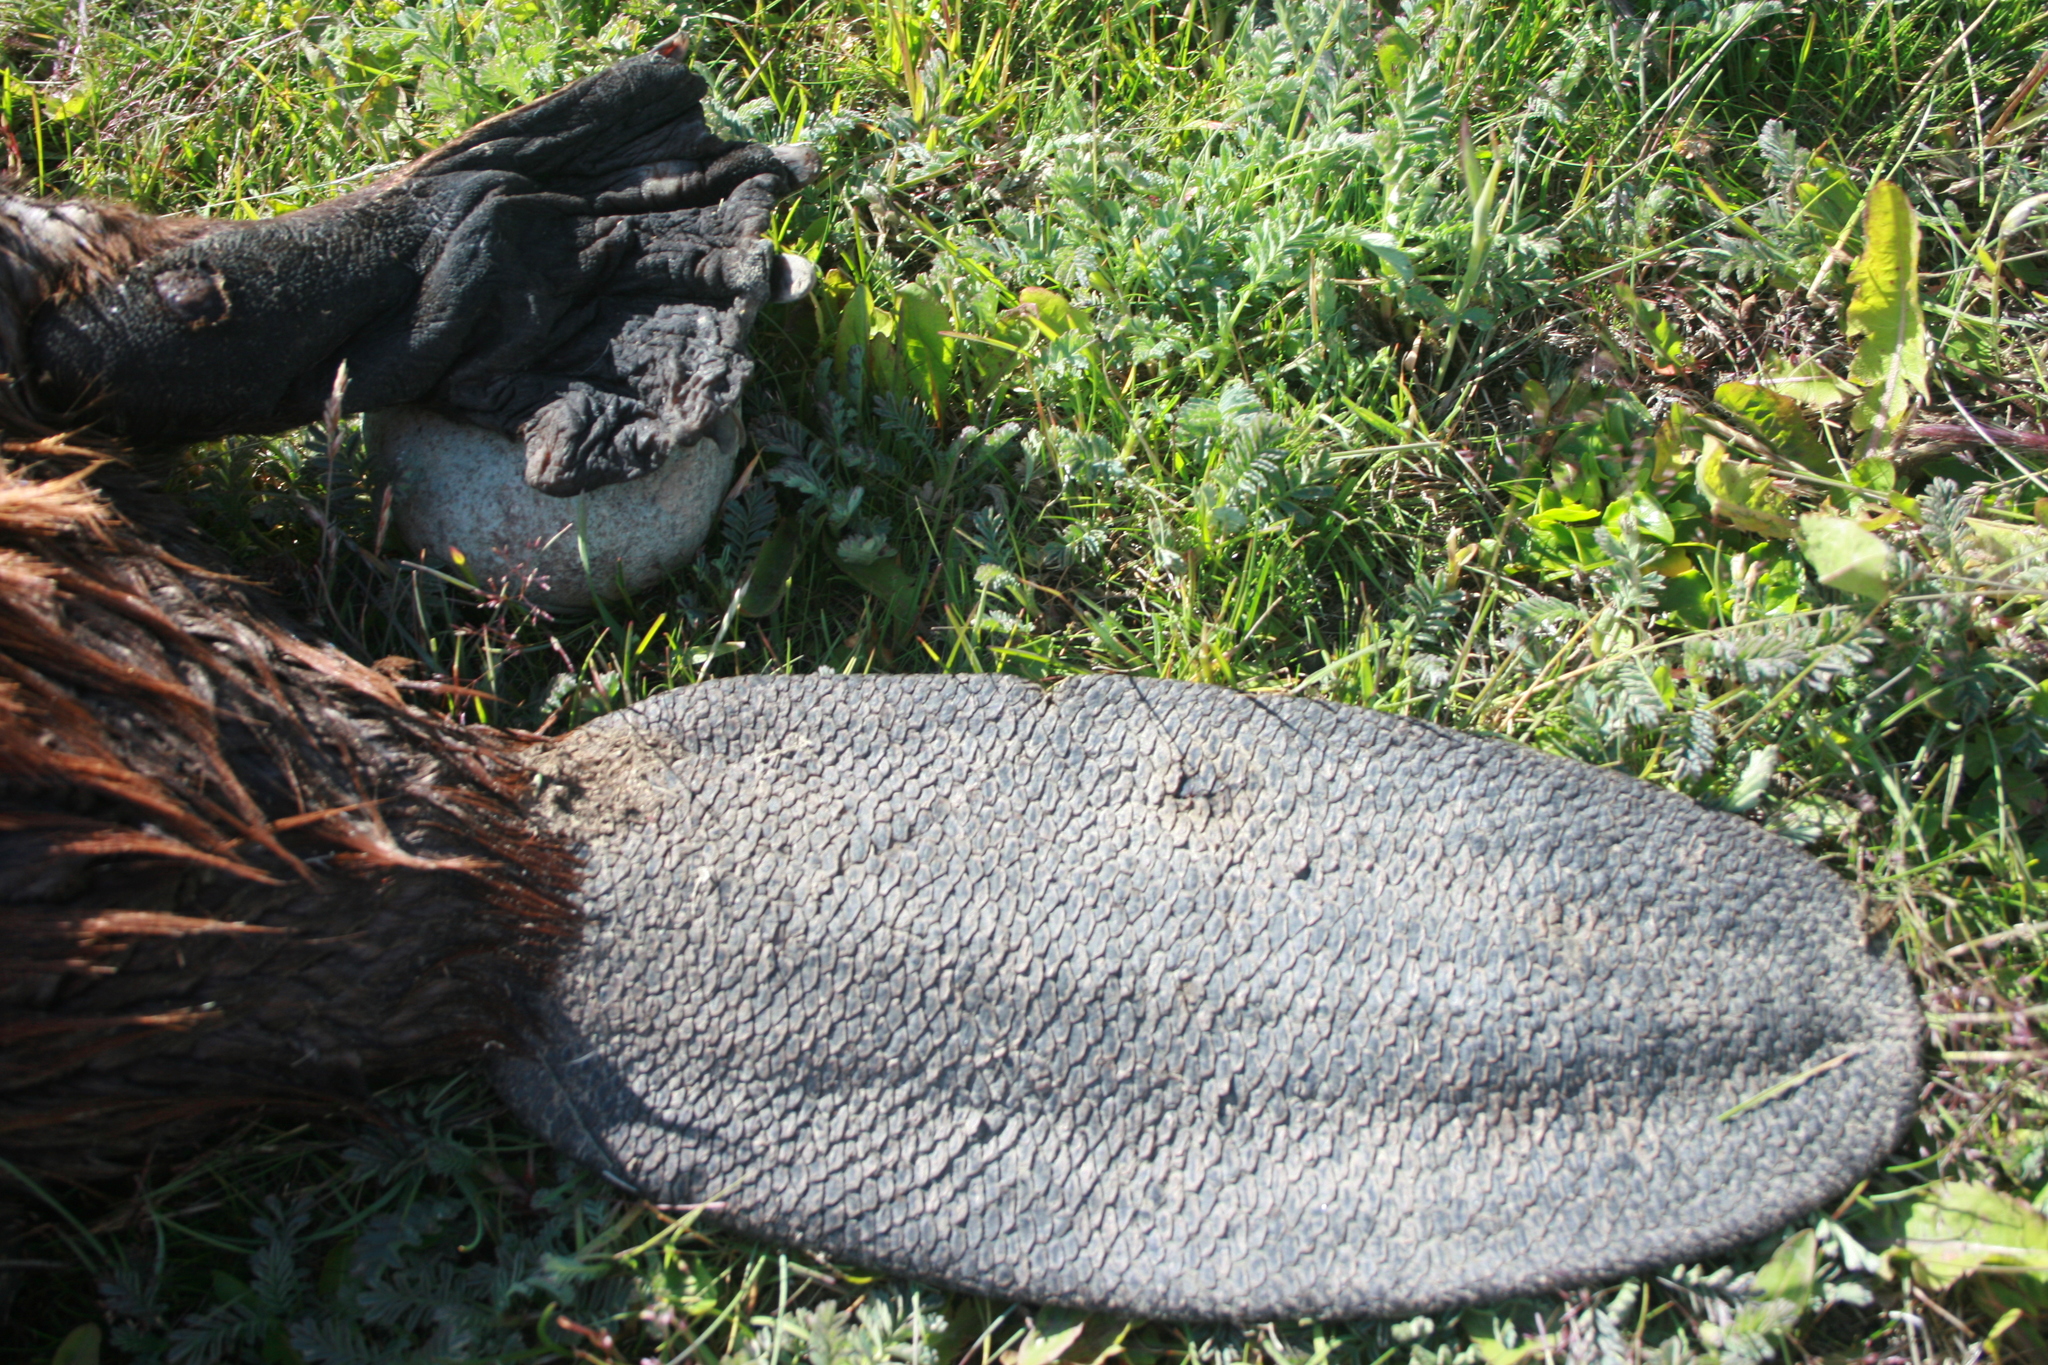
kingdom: Animalia
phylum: Chordata
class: Mammalia
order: Rodentia
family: Castoridae
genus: Castor
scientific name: Castor canadensis
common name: American beaver
